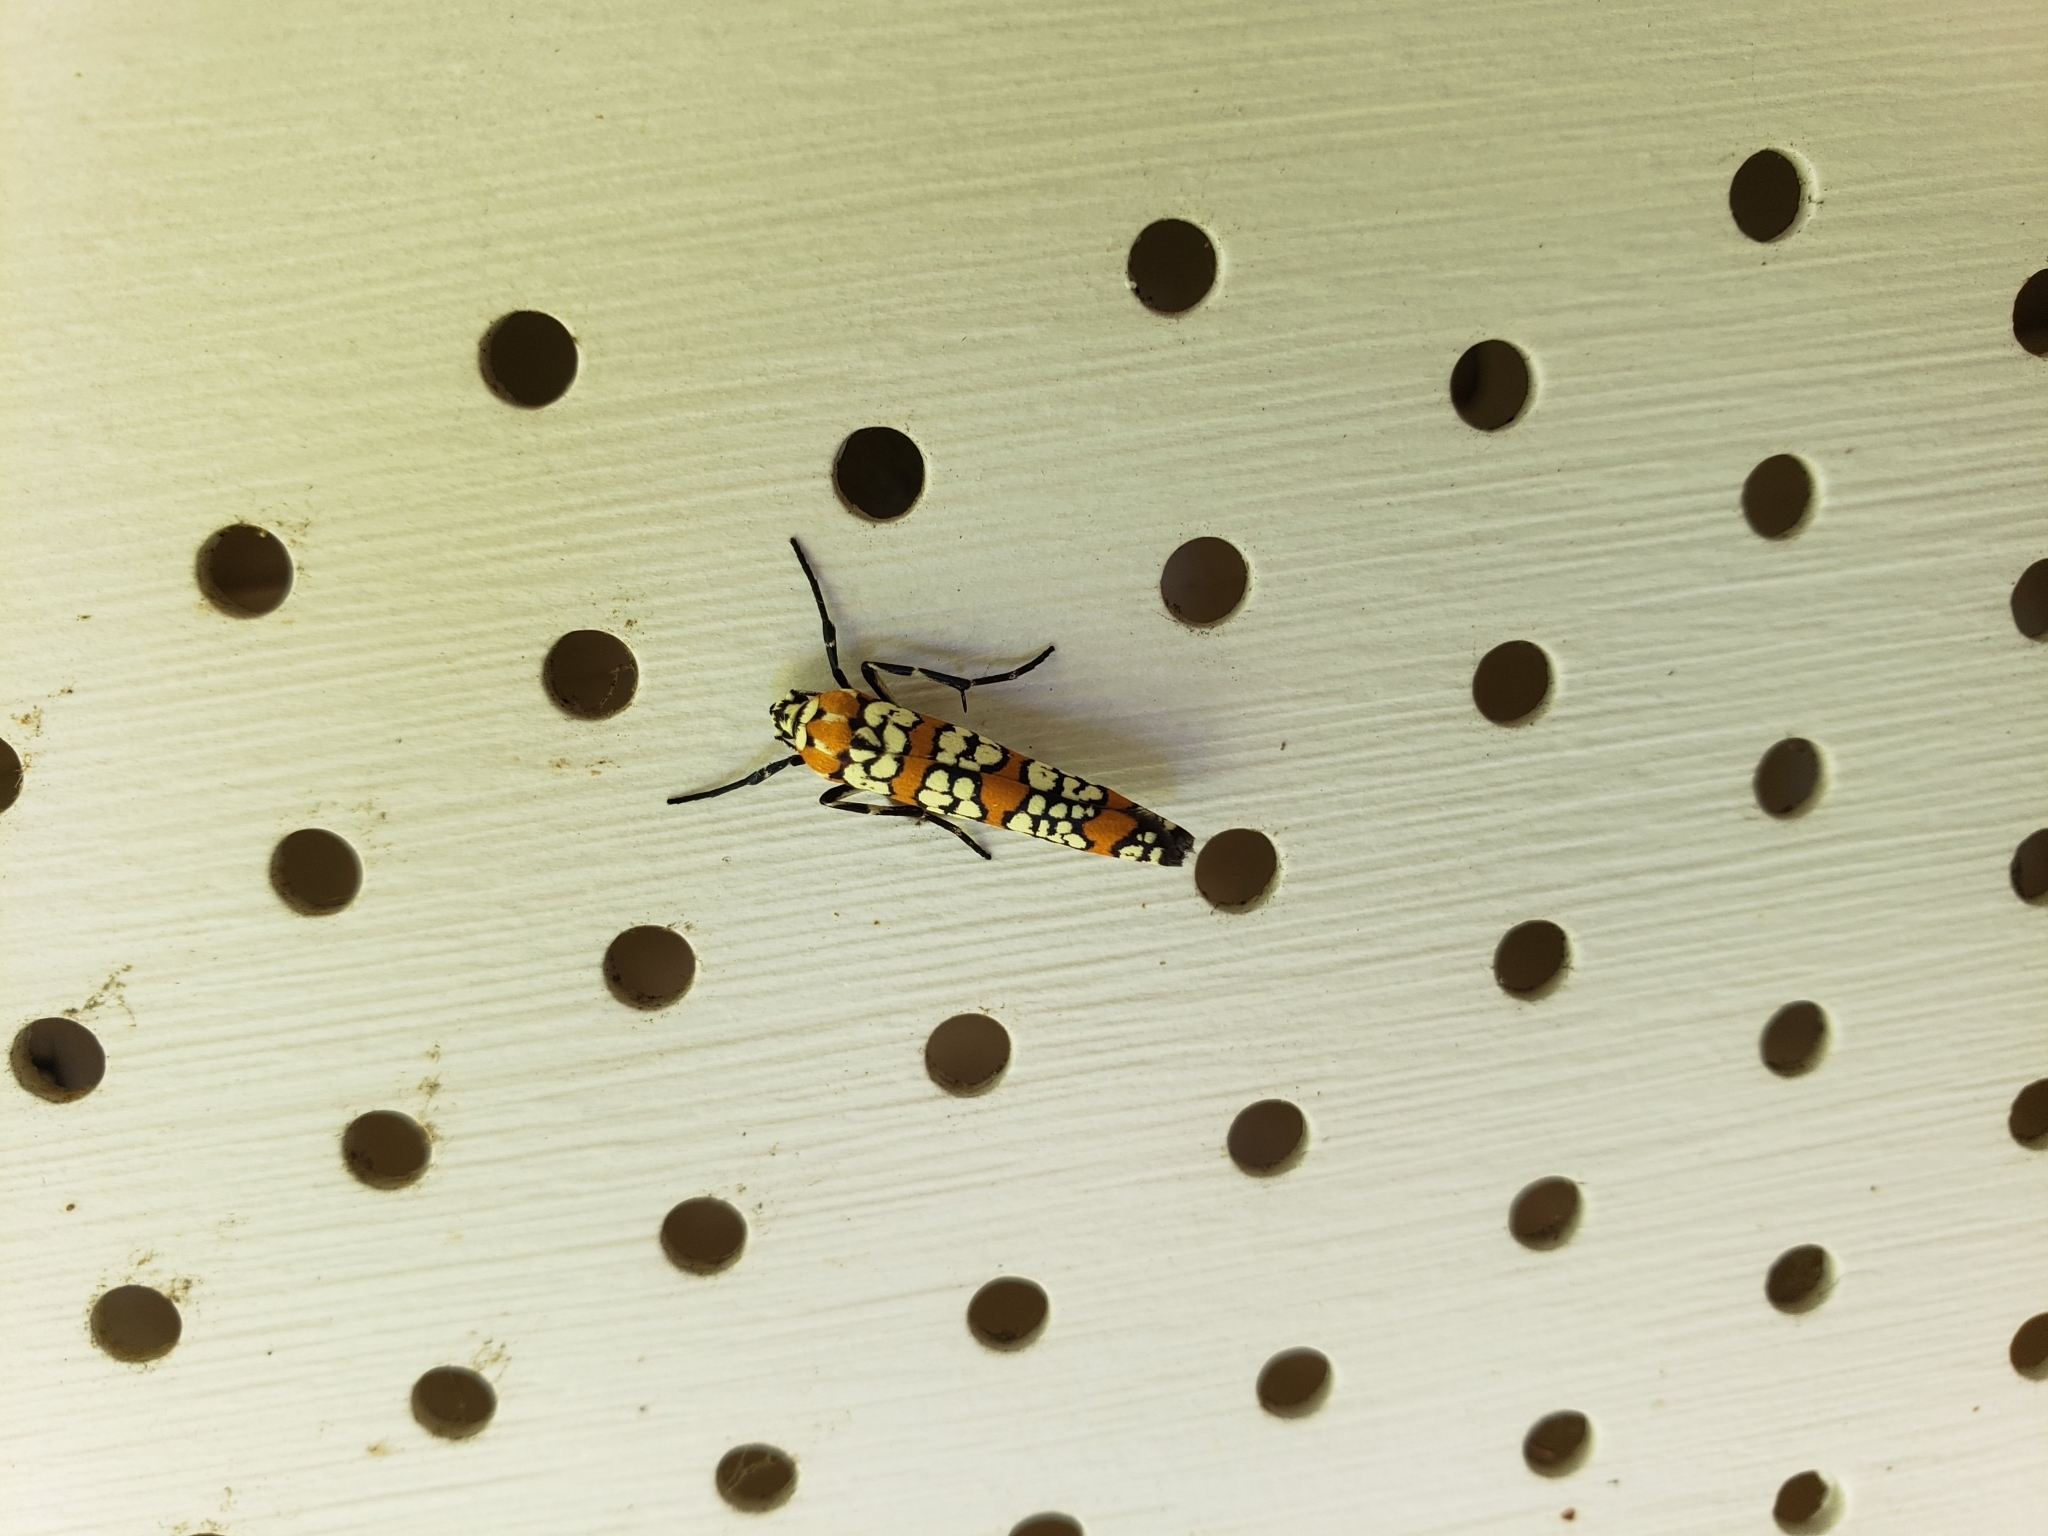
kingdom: Animalia
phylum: Arthropoda
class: Insecta
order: Lepidoptera
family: Attevidae
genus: Atteva
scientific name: Atteva punctella
